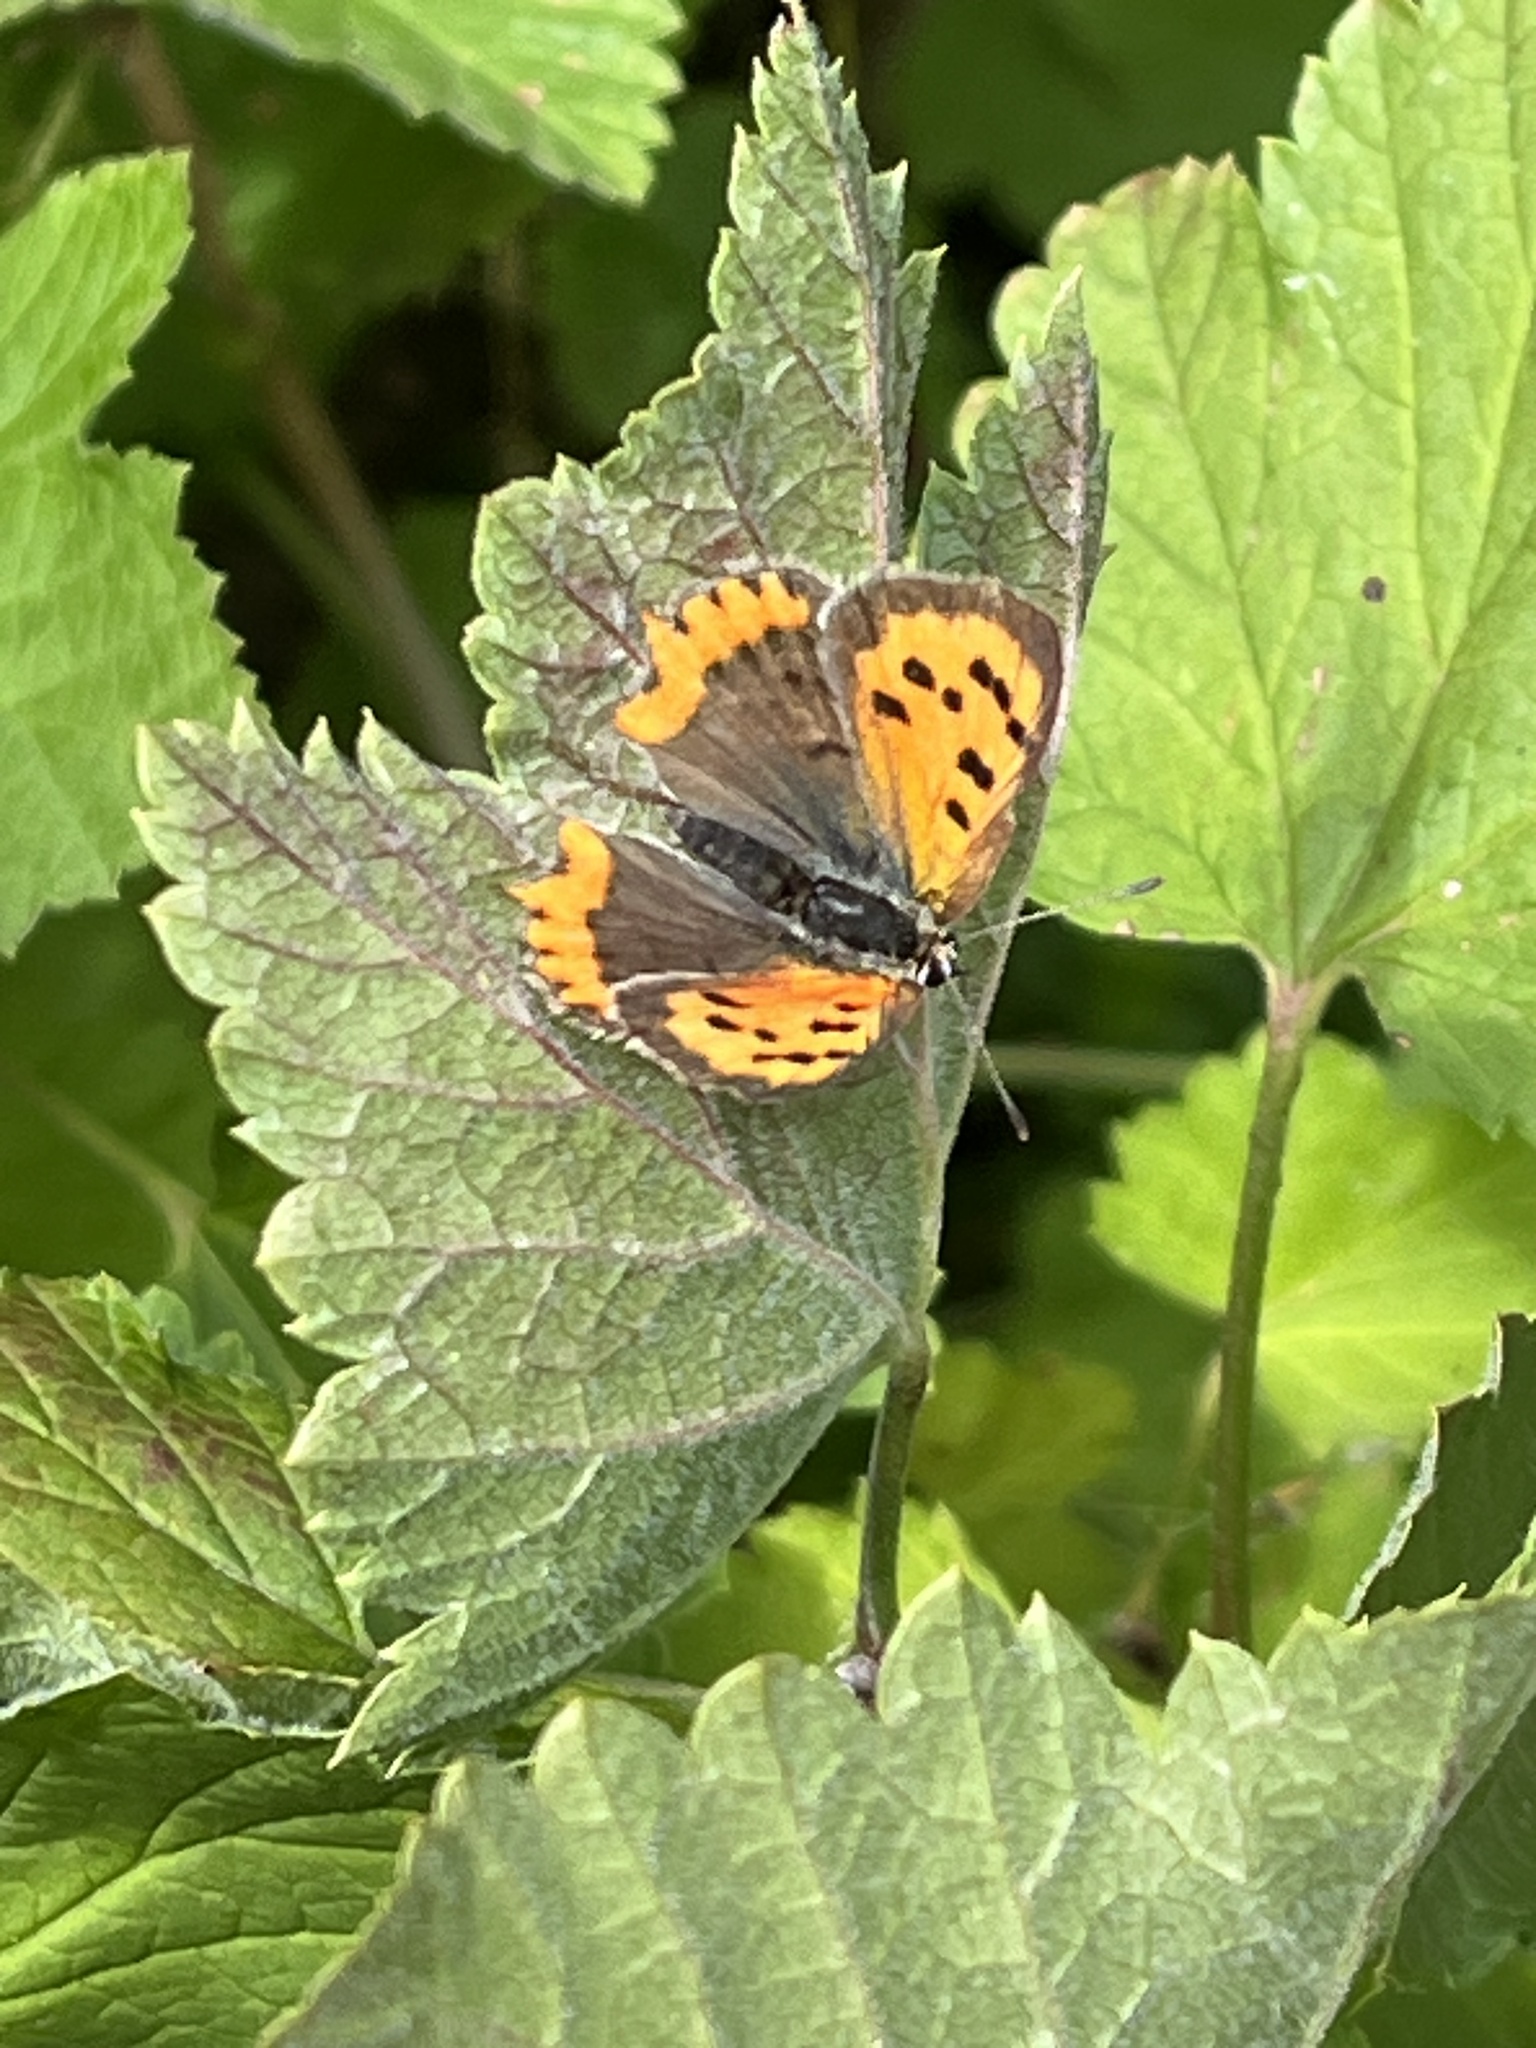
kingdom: Animalia
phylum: Arthropoda
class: Insecta
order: Lepidoptera
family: Lycaenidae
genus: Lycaena
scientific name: Lycaena phlaeas
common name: Small copper
